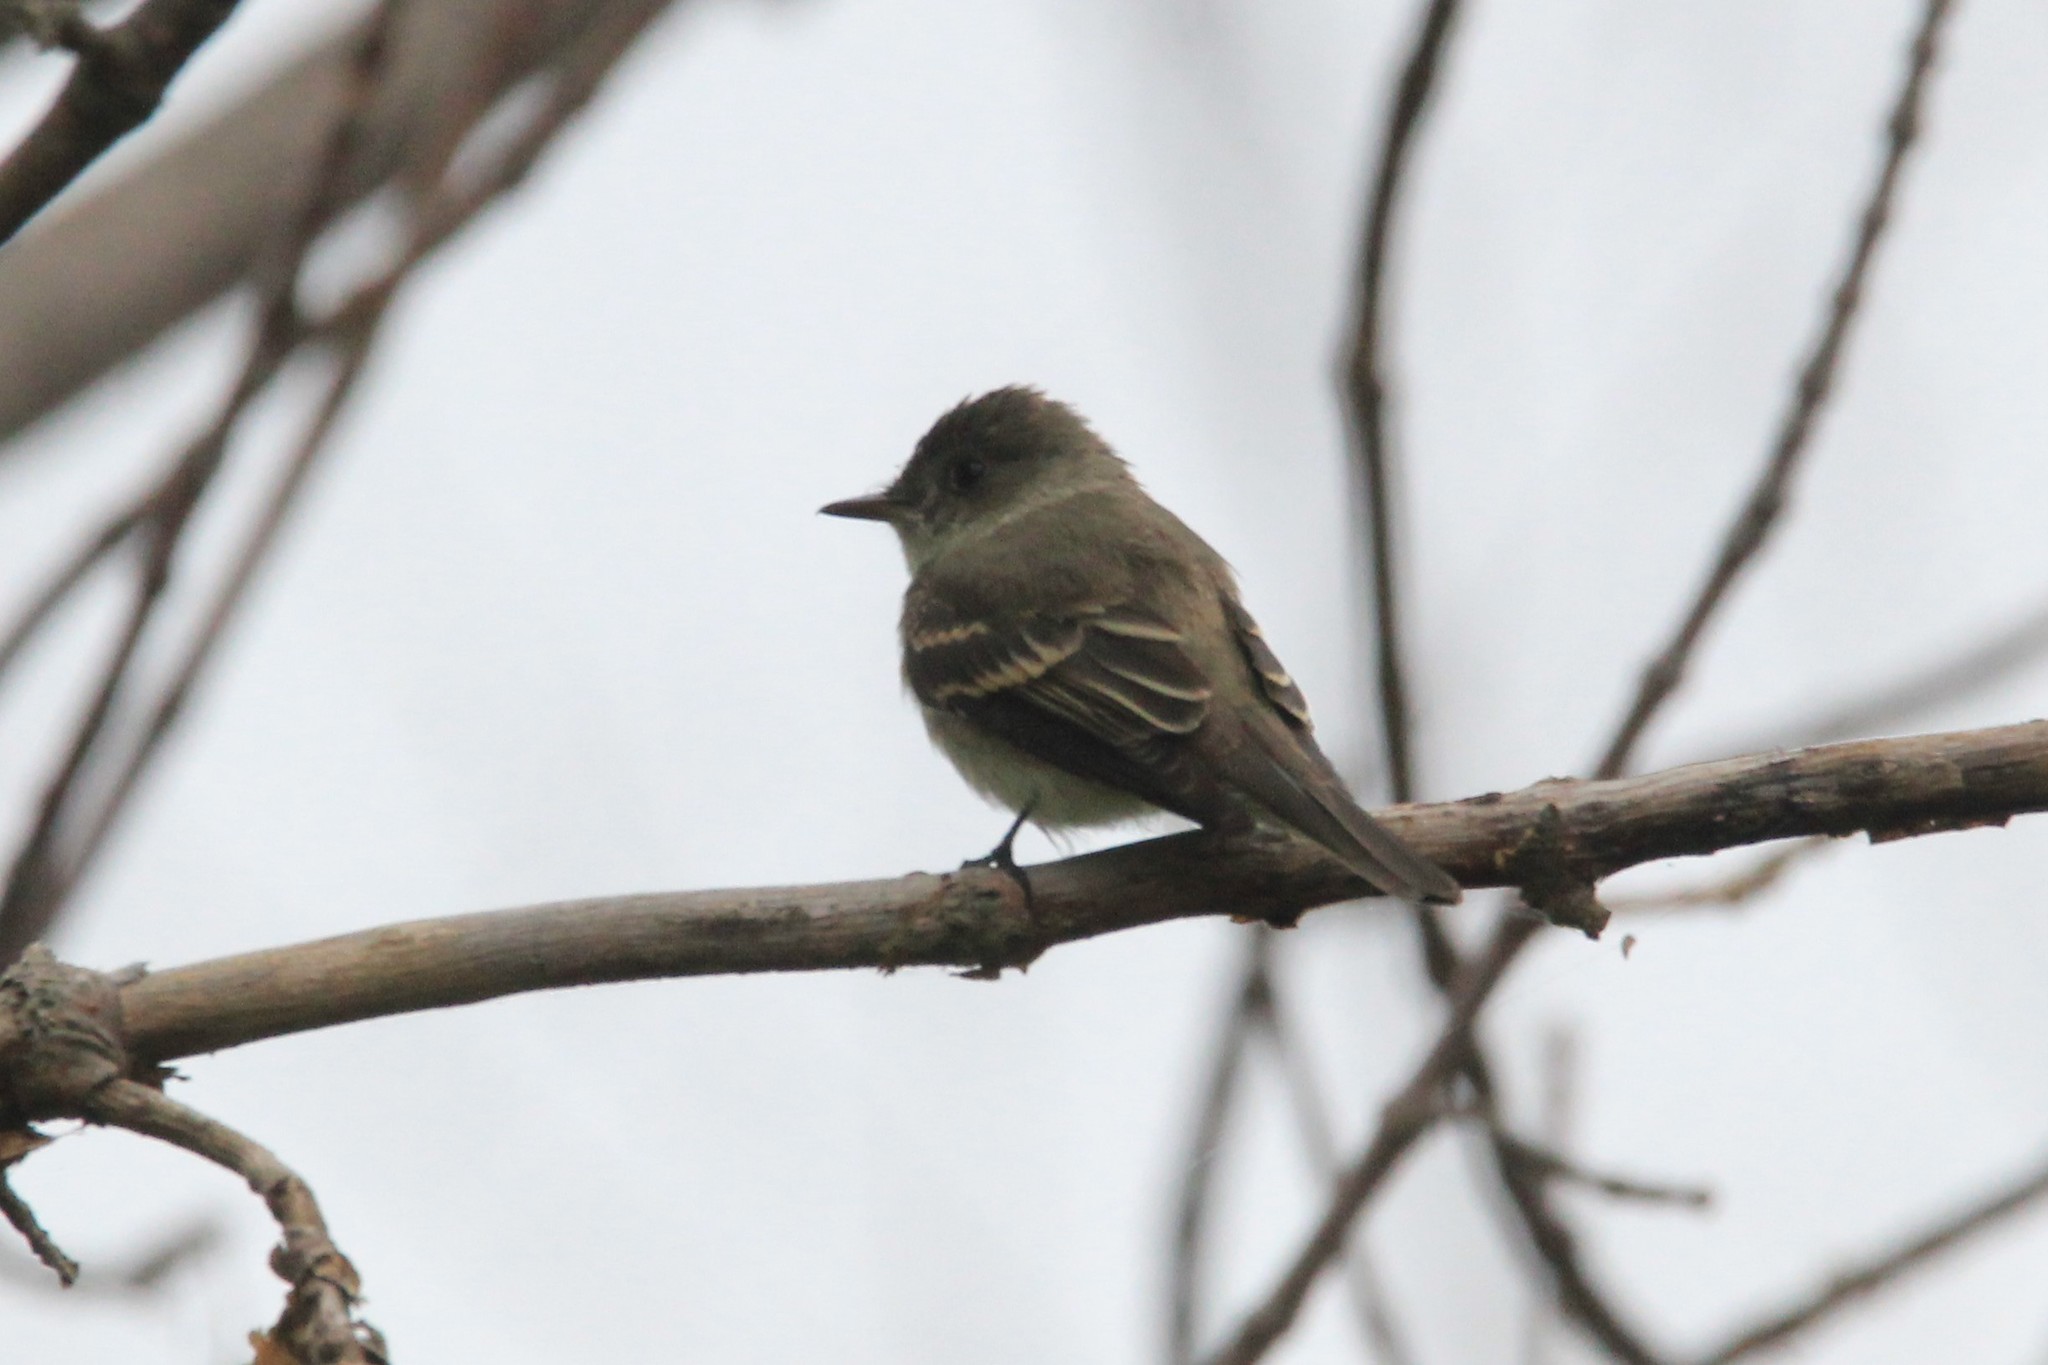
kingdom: Animalia
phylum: Chordata
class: Aves
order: Passeriformes
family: Tyrannidae
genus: Contopus
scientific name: Contopus virens
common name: Eastern wood-pewee
